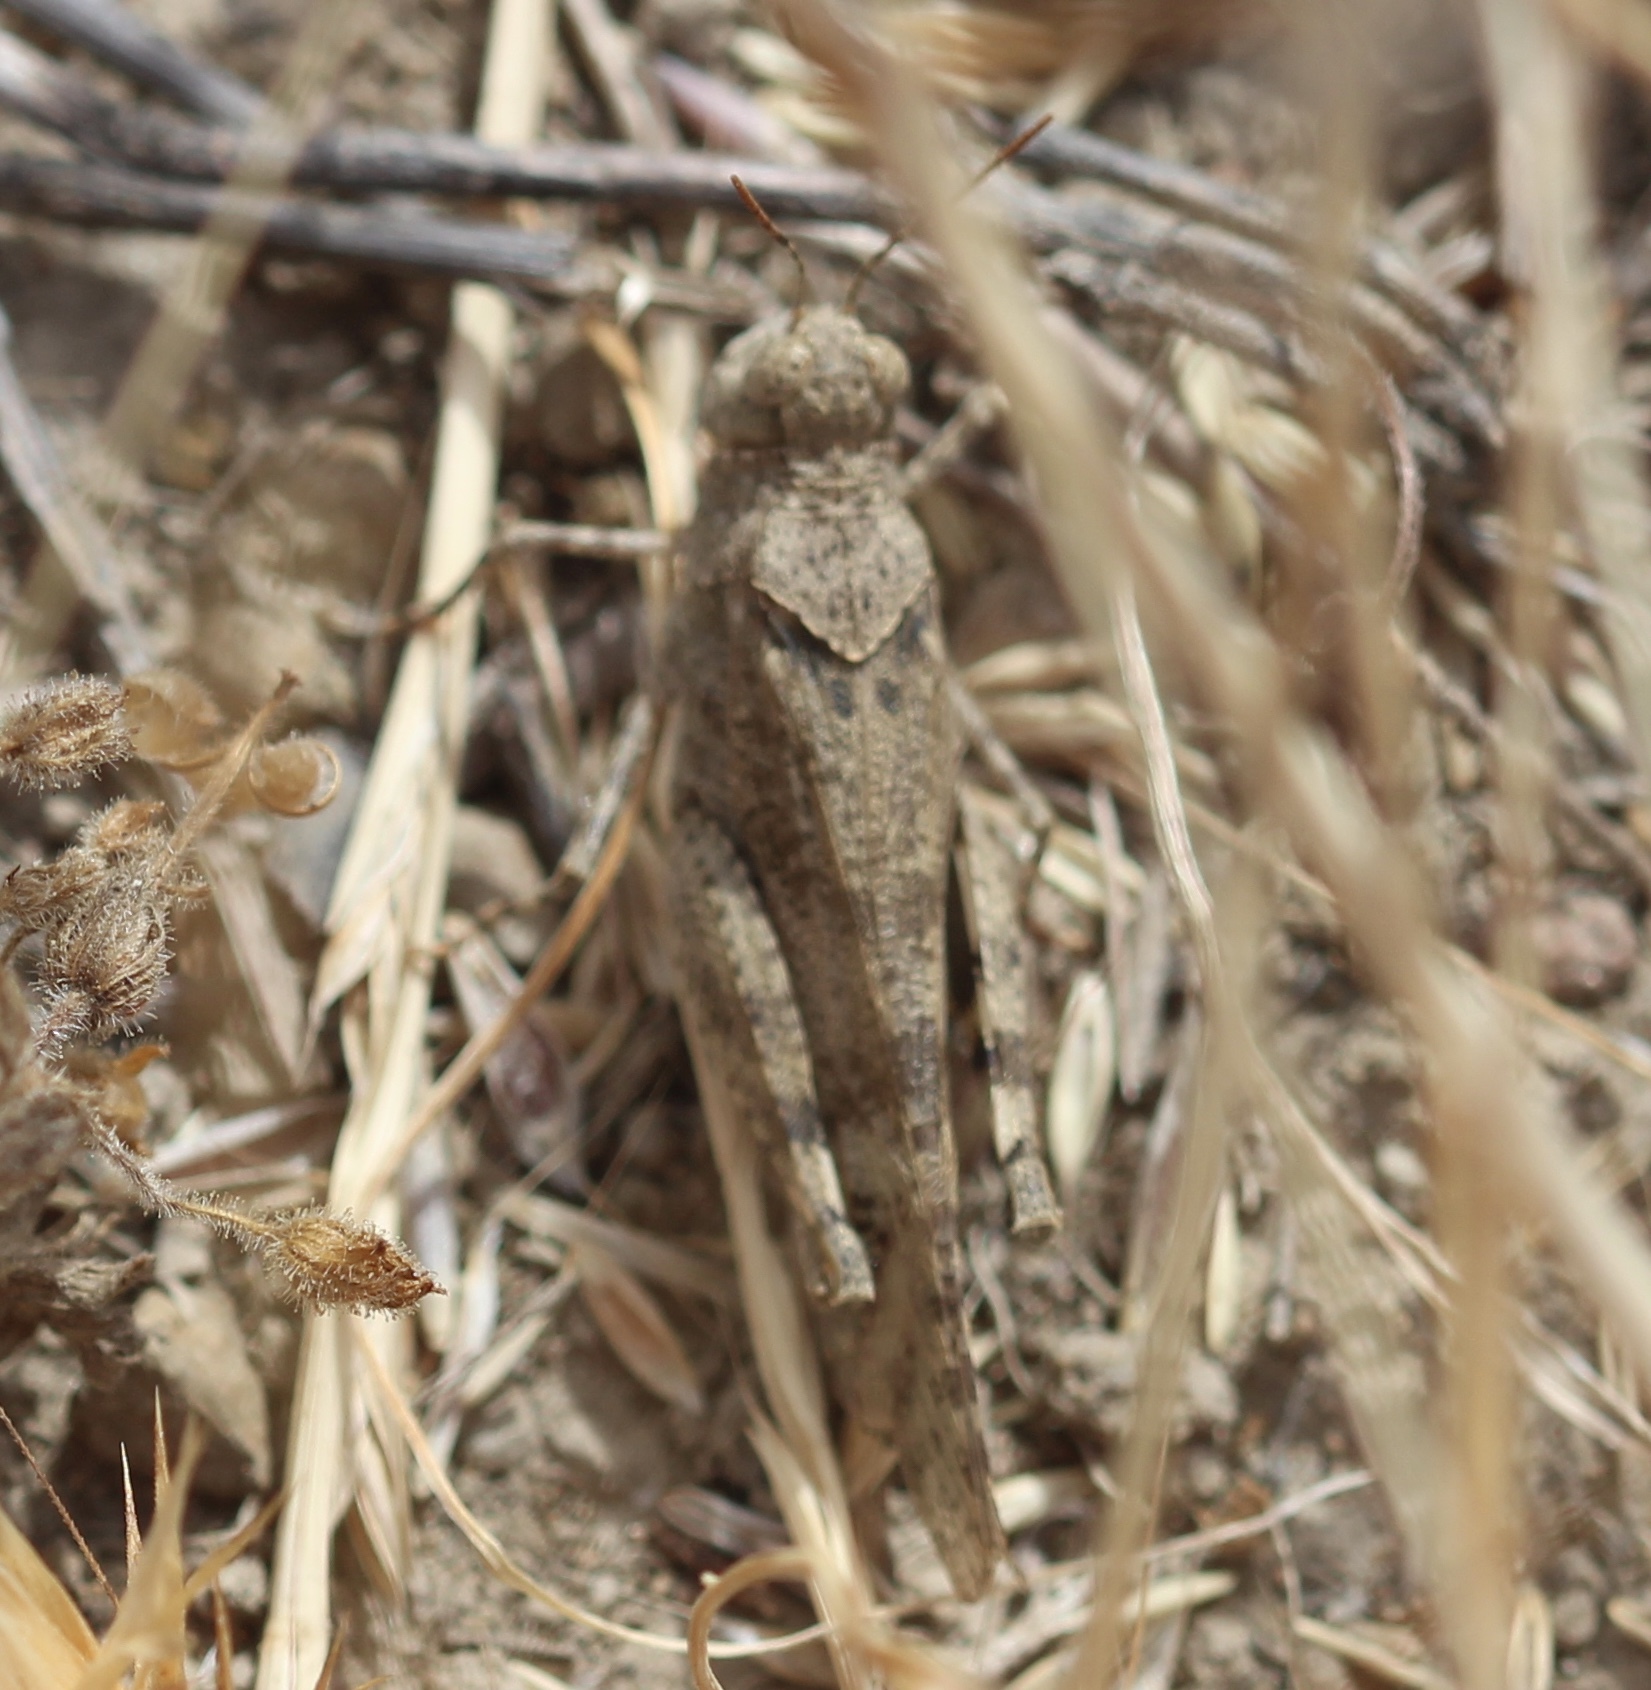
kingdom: Animalia
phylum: Arthropoda
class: Insecta
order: Orthoptera
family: Acrididae
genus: Trimerotropis
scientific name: Trimerotropis occidentalis
